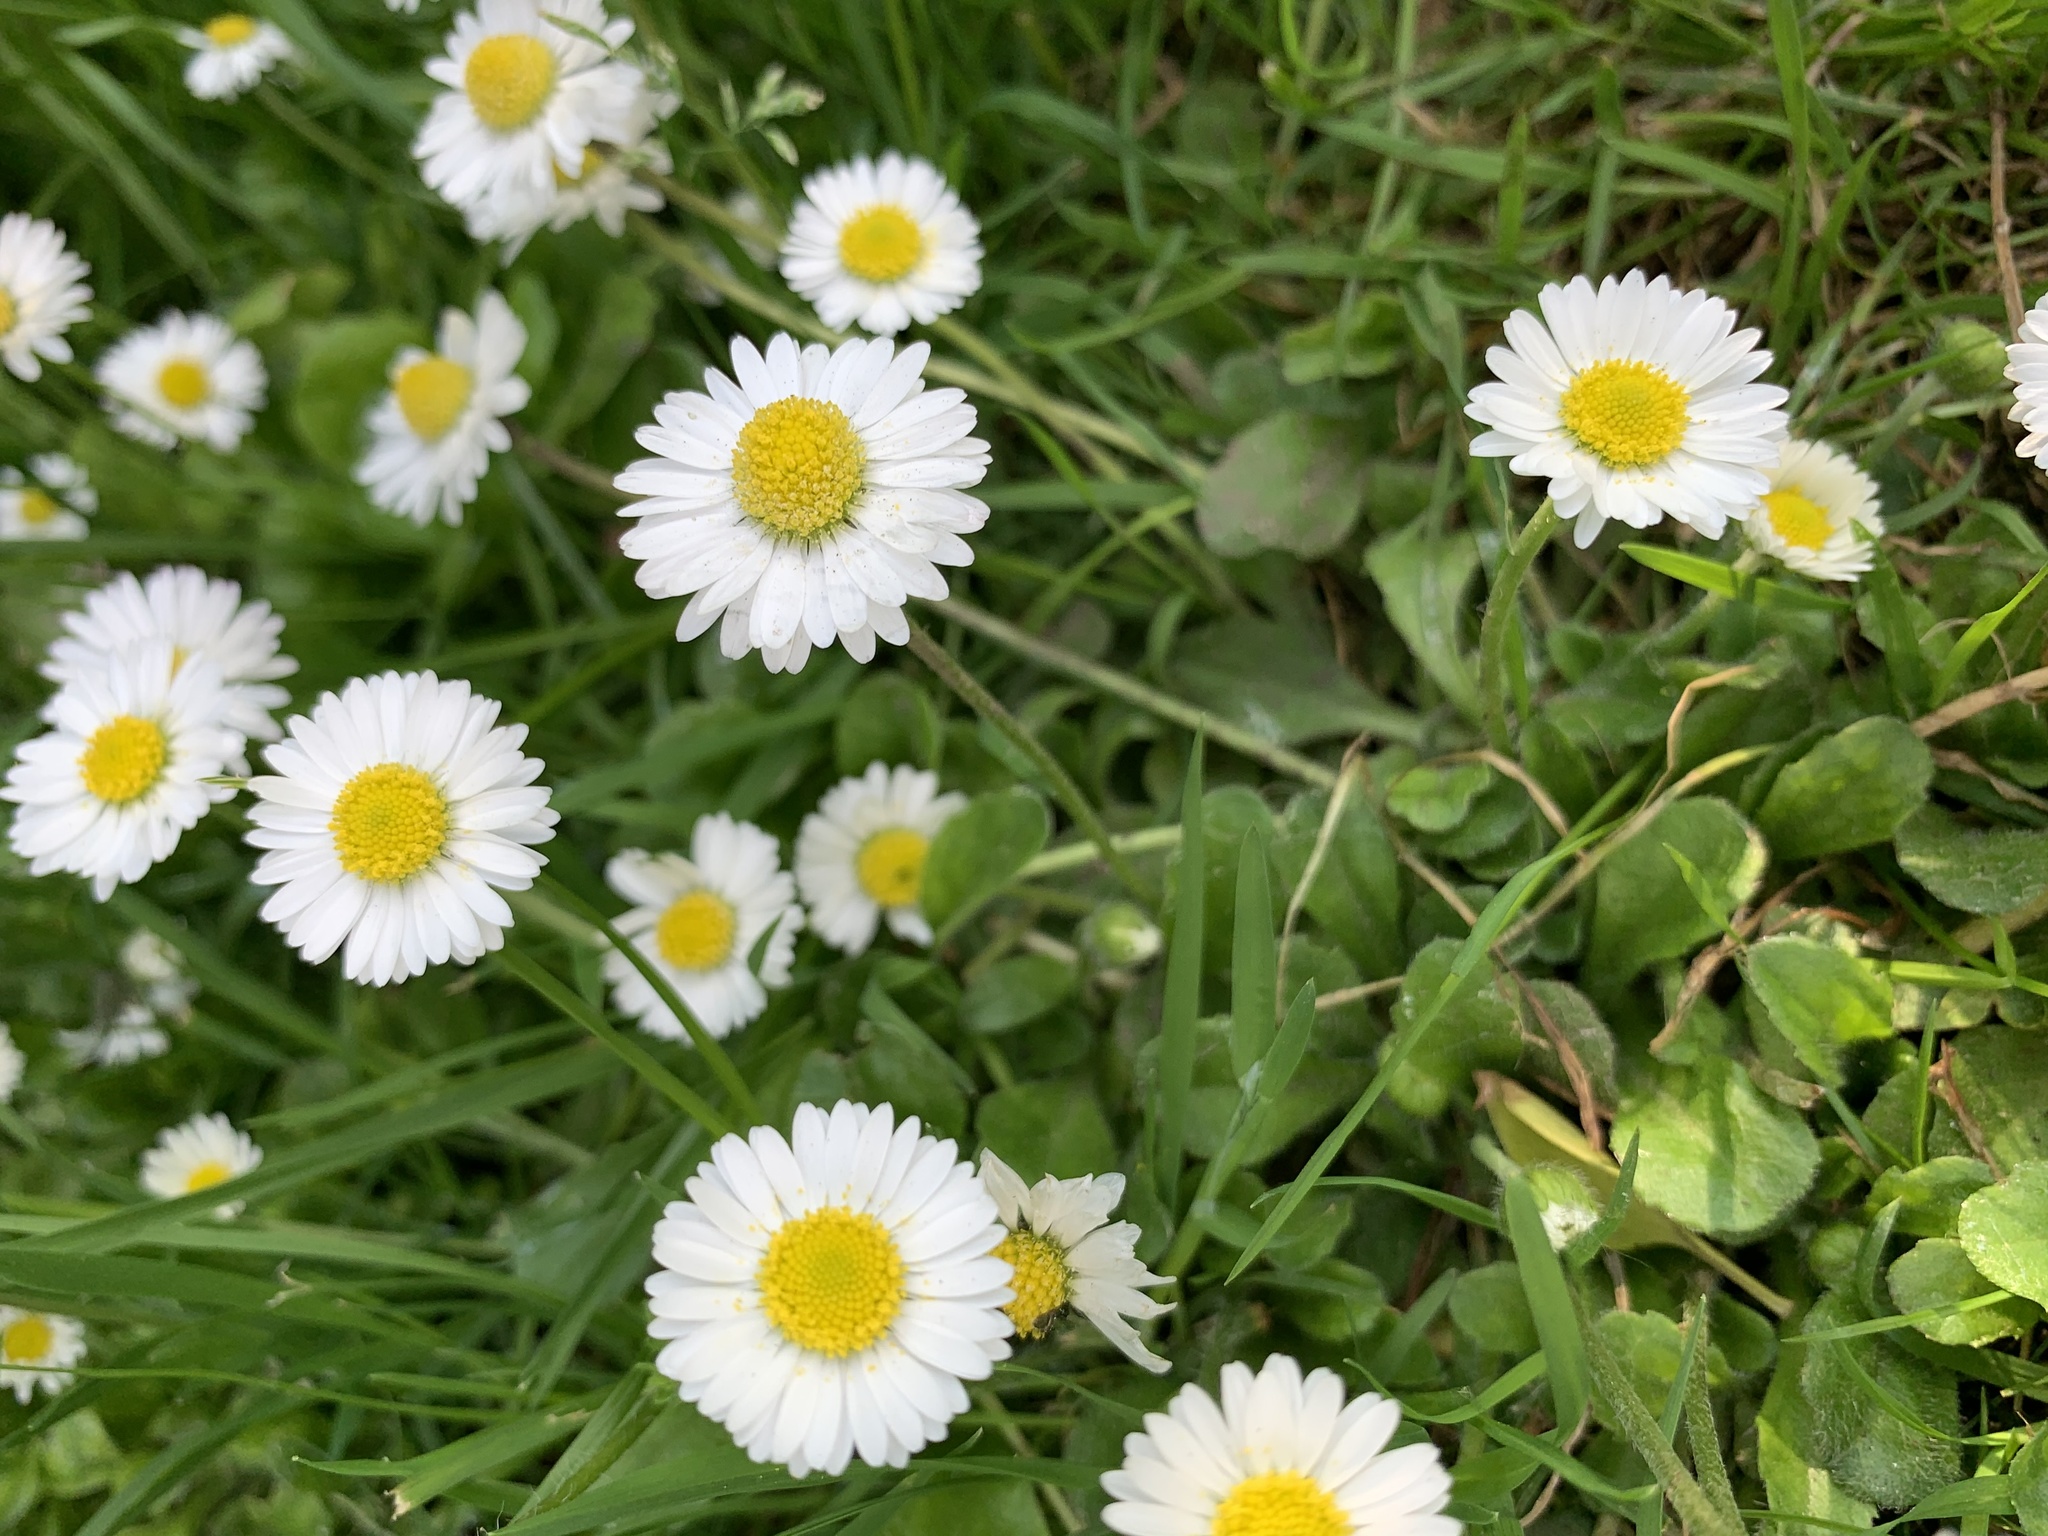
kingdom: Plantae
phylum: Tracheophyta
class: Magnoliopsida
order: Asterales
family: Asteraceae
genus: Bellis
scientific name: Bellis perennis
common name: Lawndaisy
